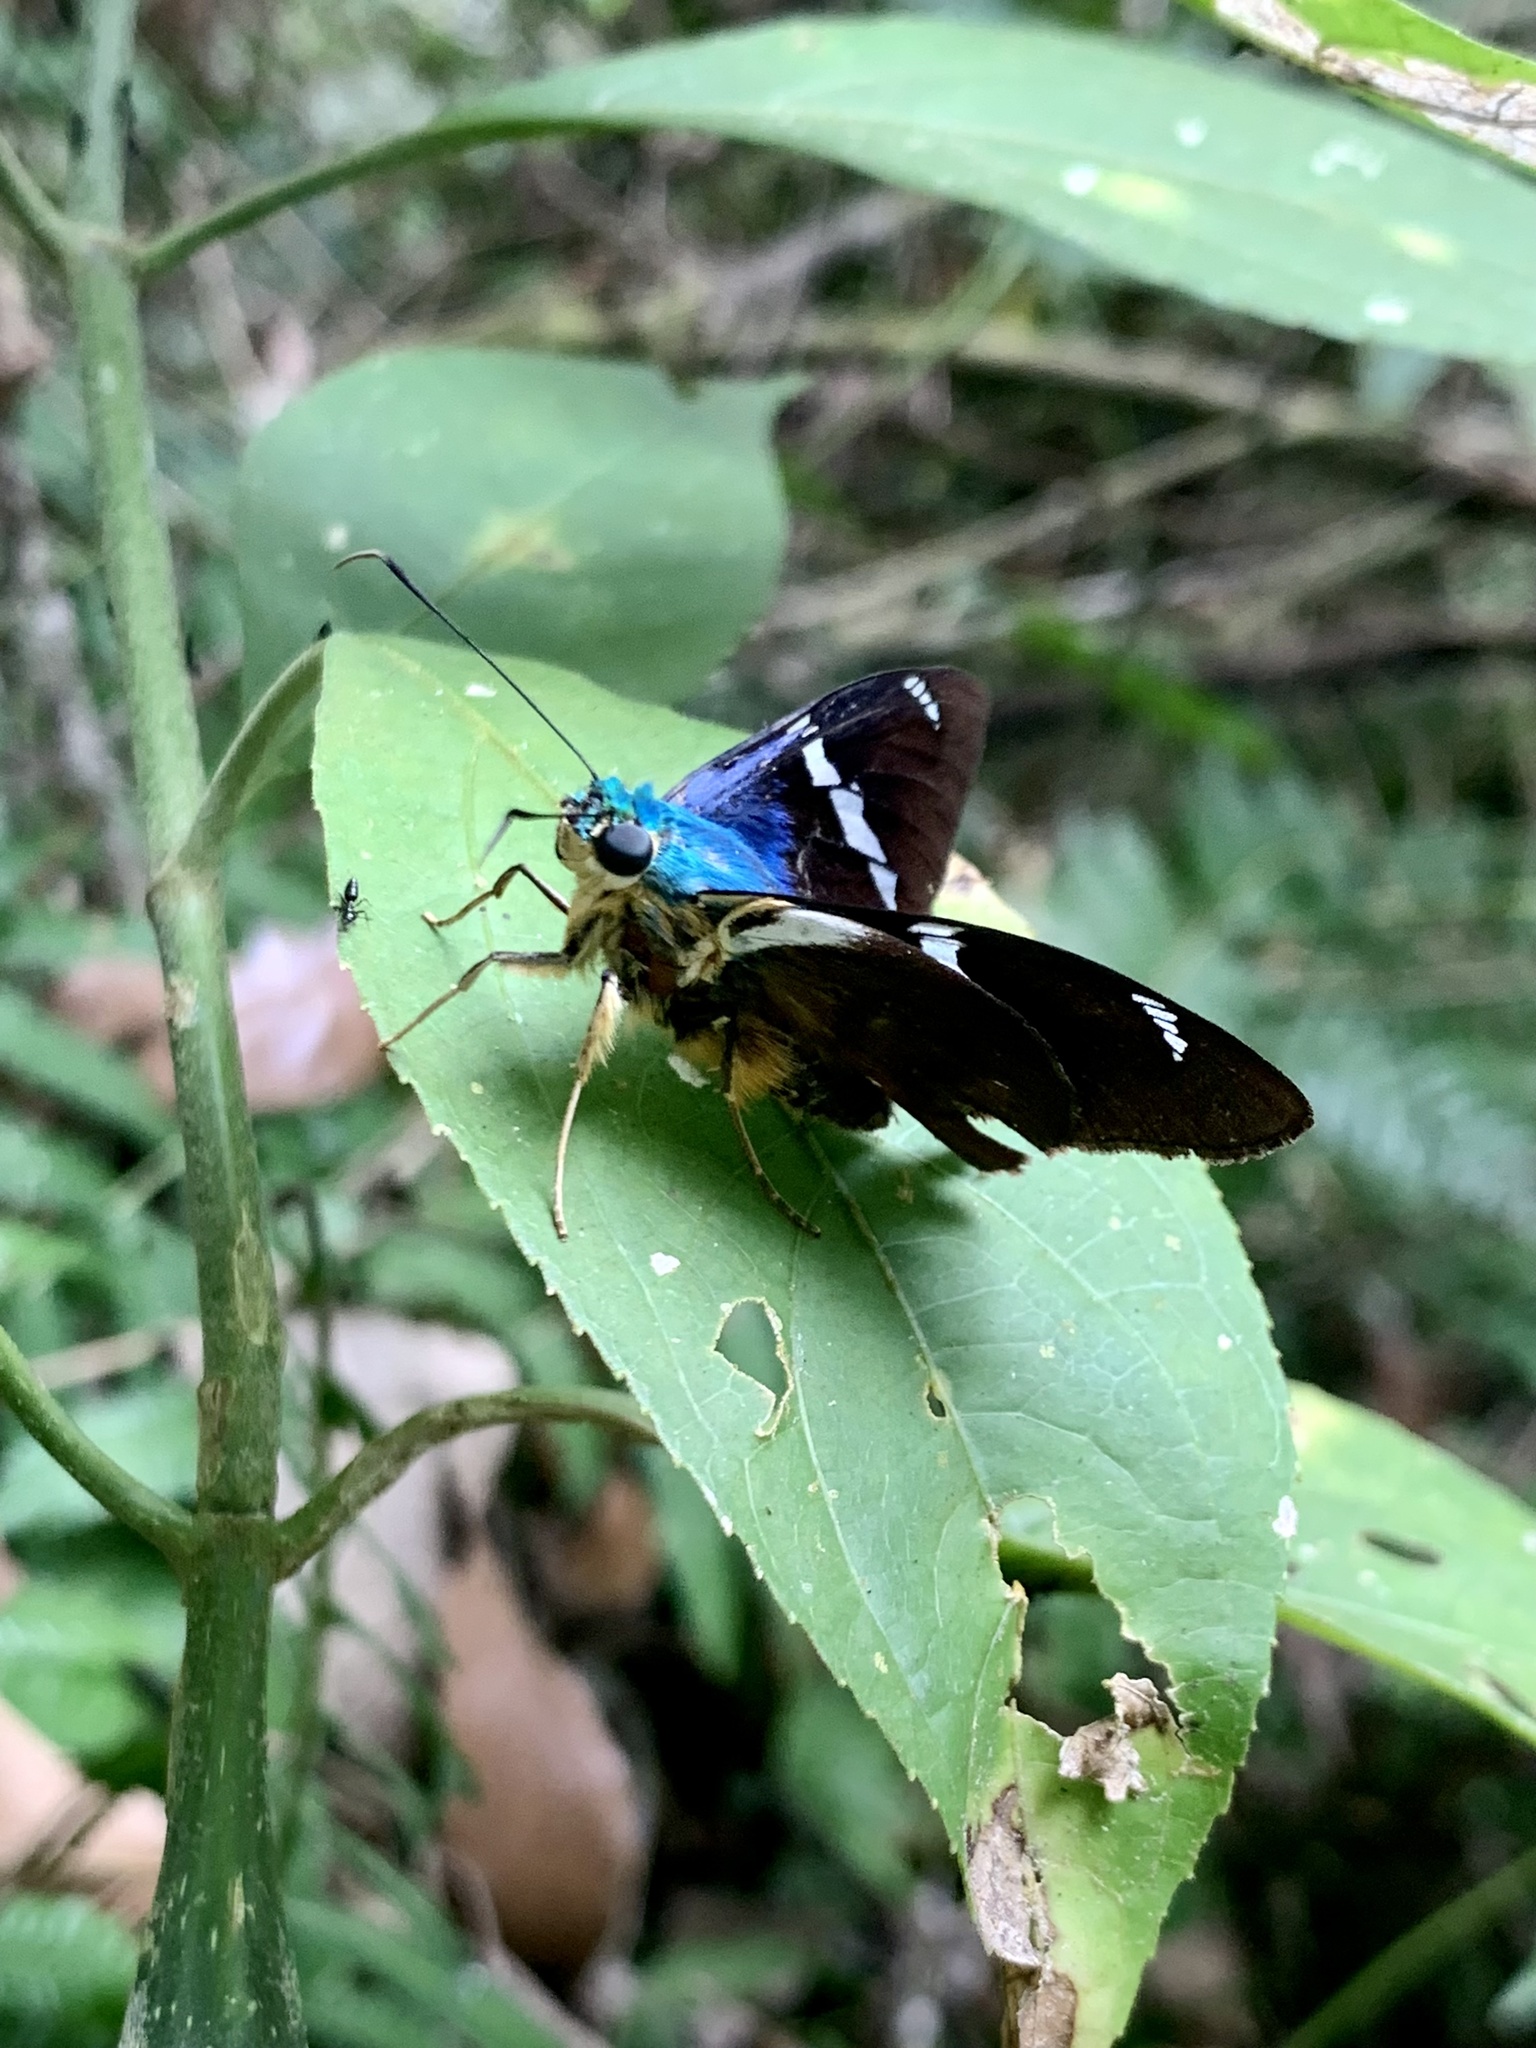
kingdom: Animalia
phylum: Arthropoda
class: Insecta
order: Lepidoptera
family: Hesperiidae
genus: Astraptes
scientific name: Astraptes fulgerator
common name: Two-barred flasher
